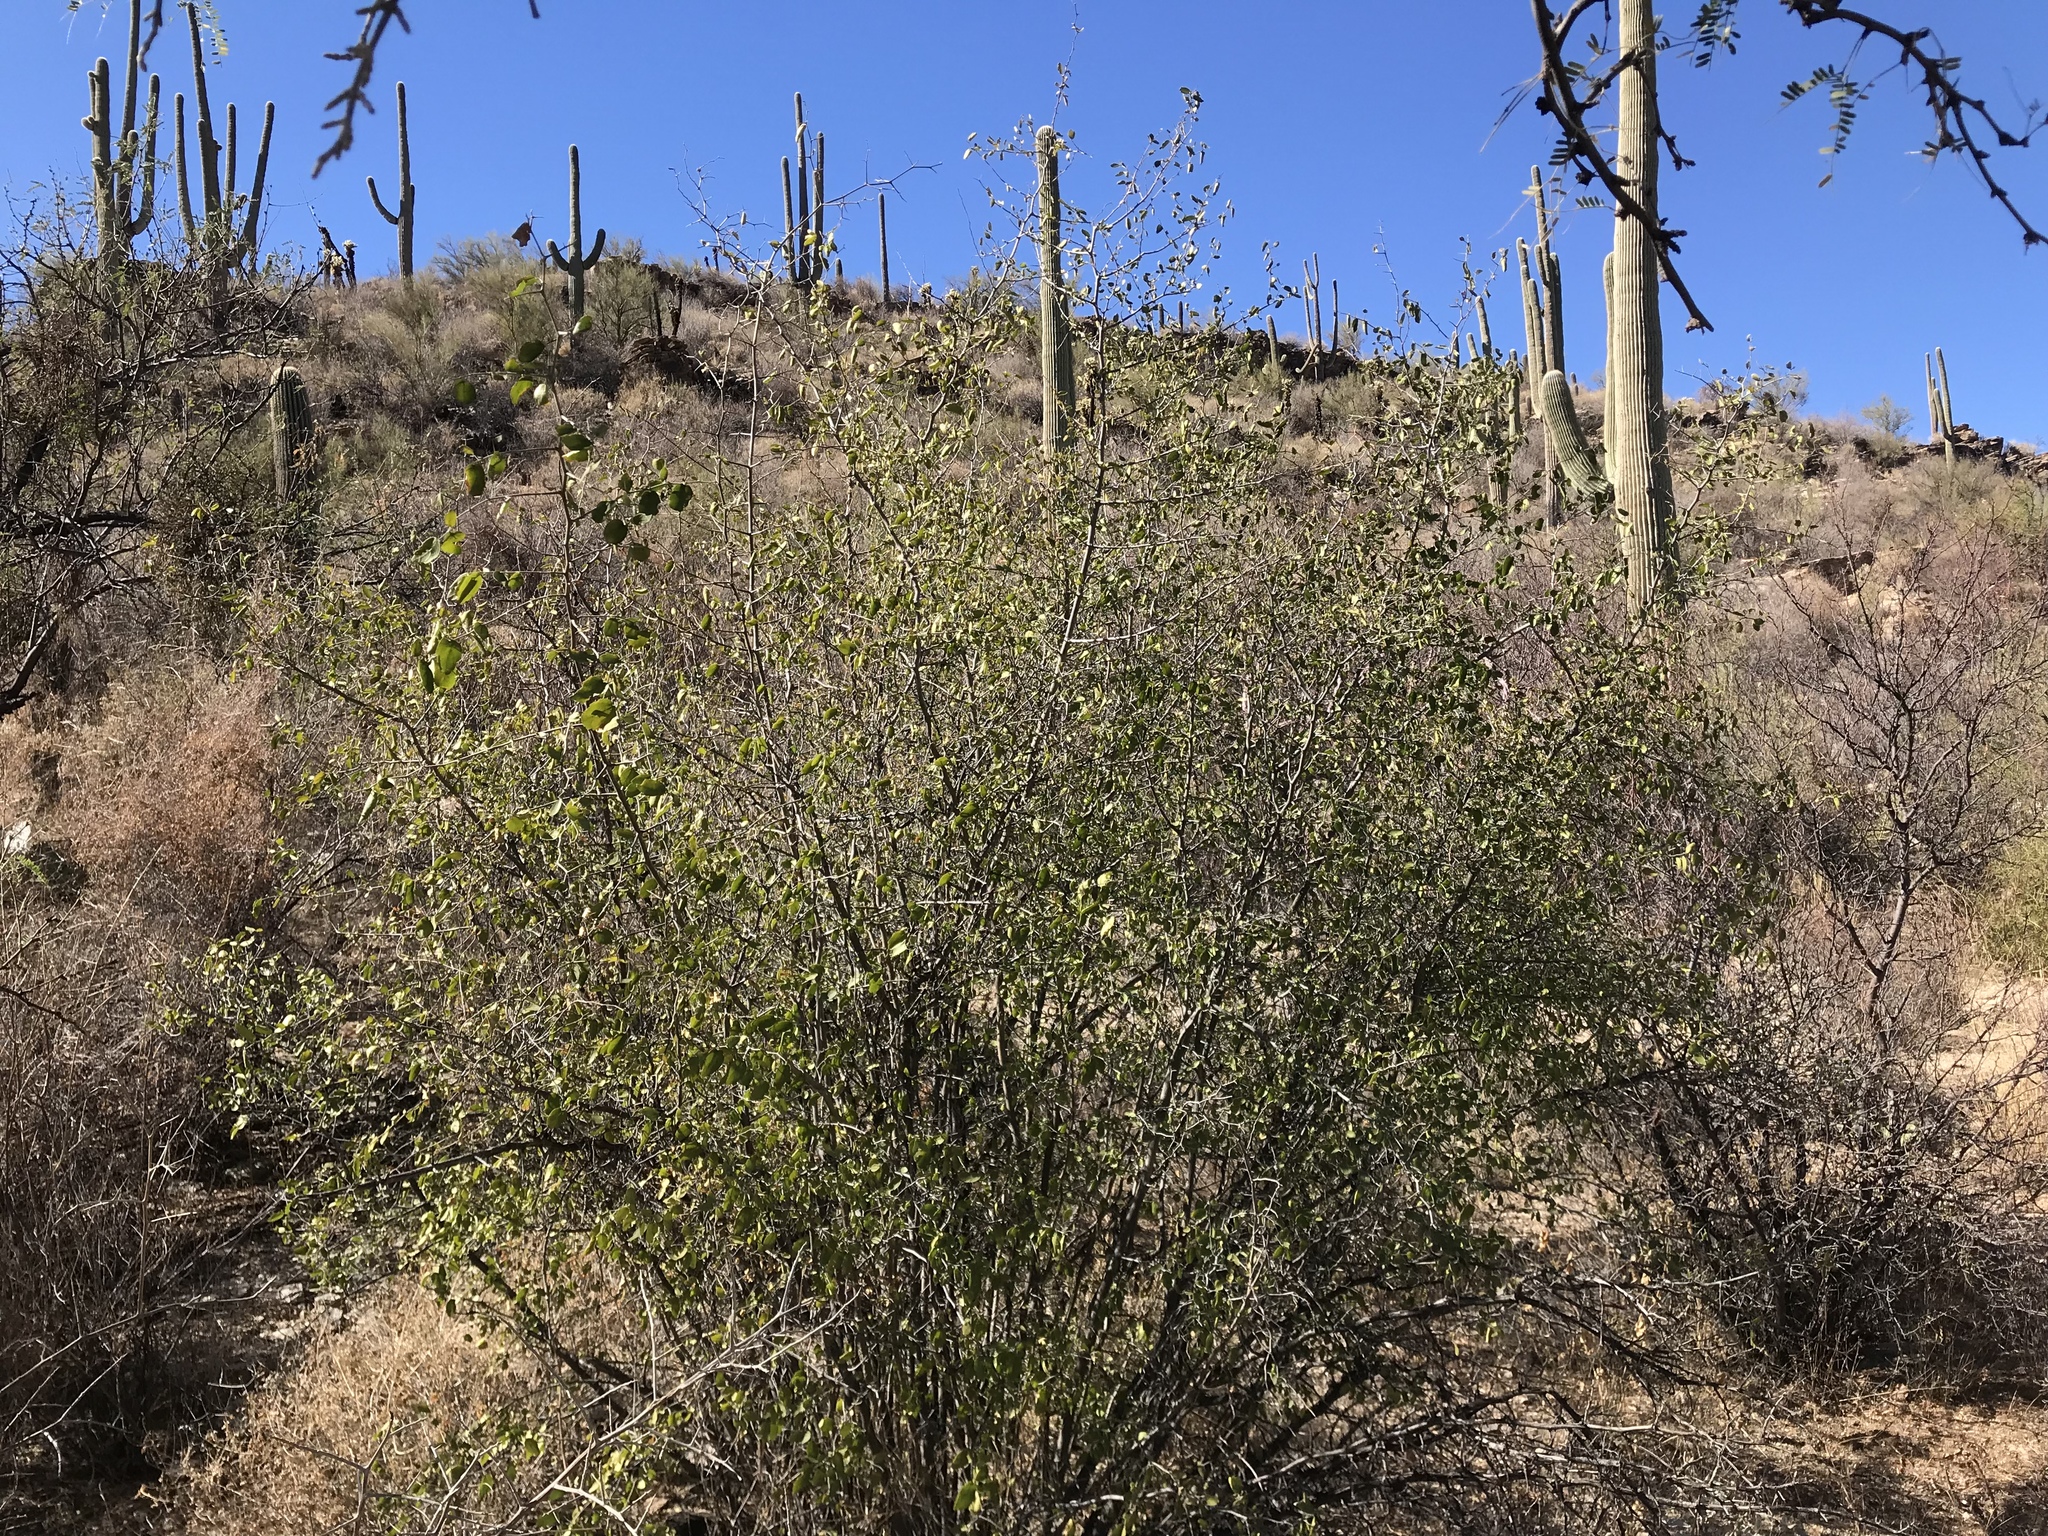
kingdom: Plantae
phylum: Tracheophyta
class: Magnoliopsida
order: Rosales
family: Cannabaceae
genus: Celtis
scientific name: Celtis pallida
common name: Desert hackberry
